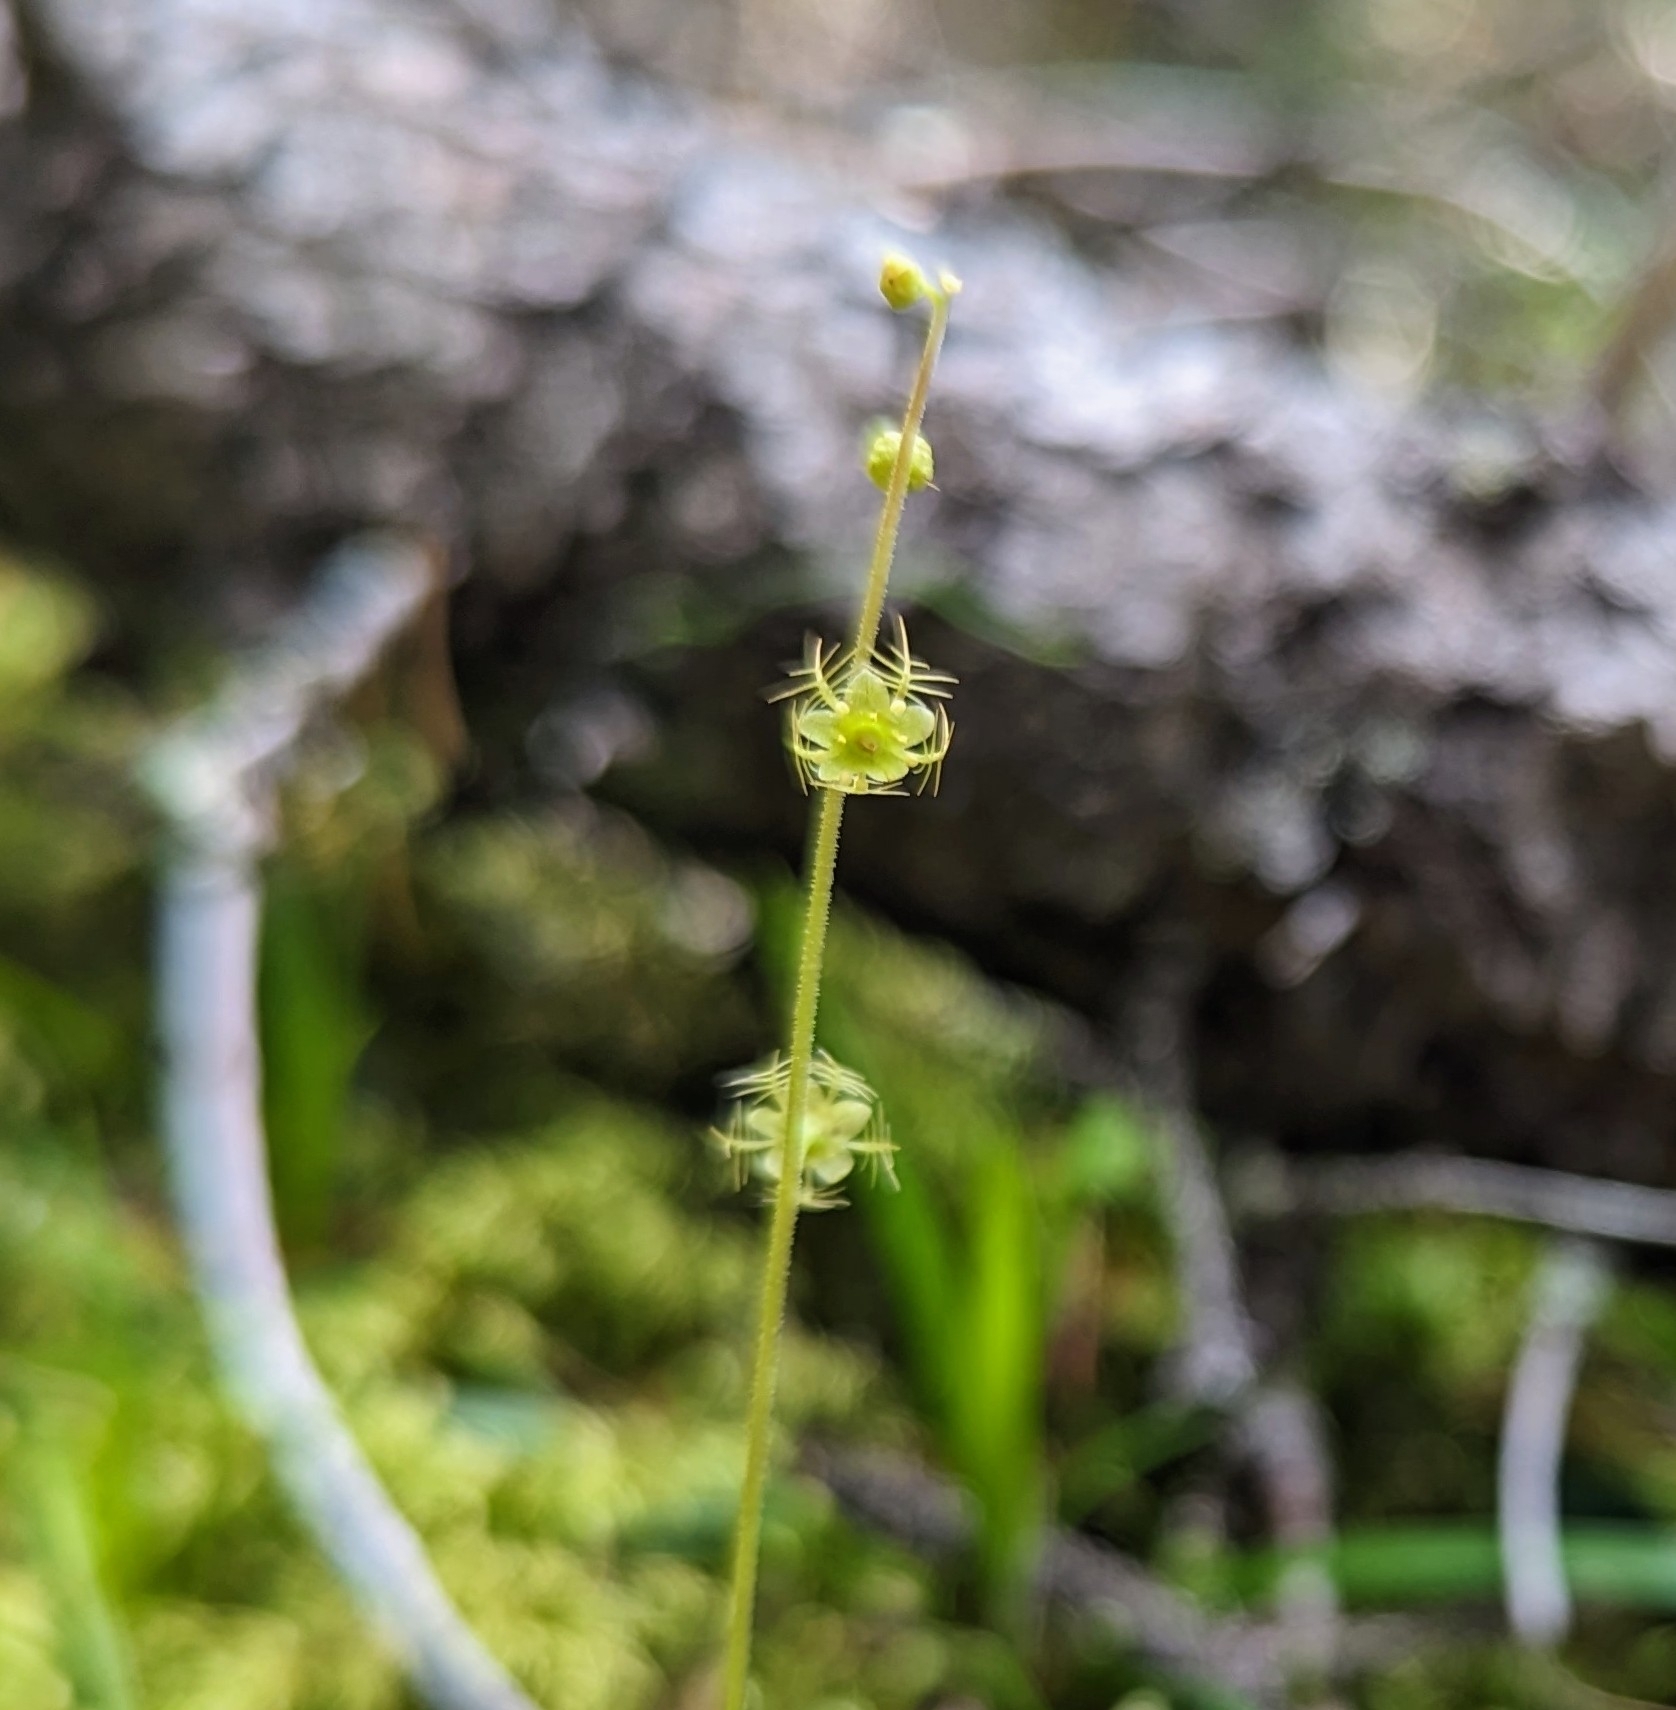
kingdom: Plantae
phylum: Tracheophyta
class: Magnoliopsida
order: Saxifragales
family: Saxifragaceae
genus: Mitella
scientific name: Mitella nuda
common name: Bare-stemmed bishop's-cap
